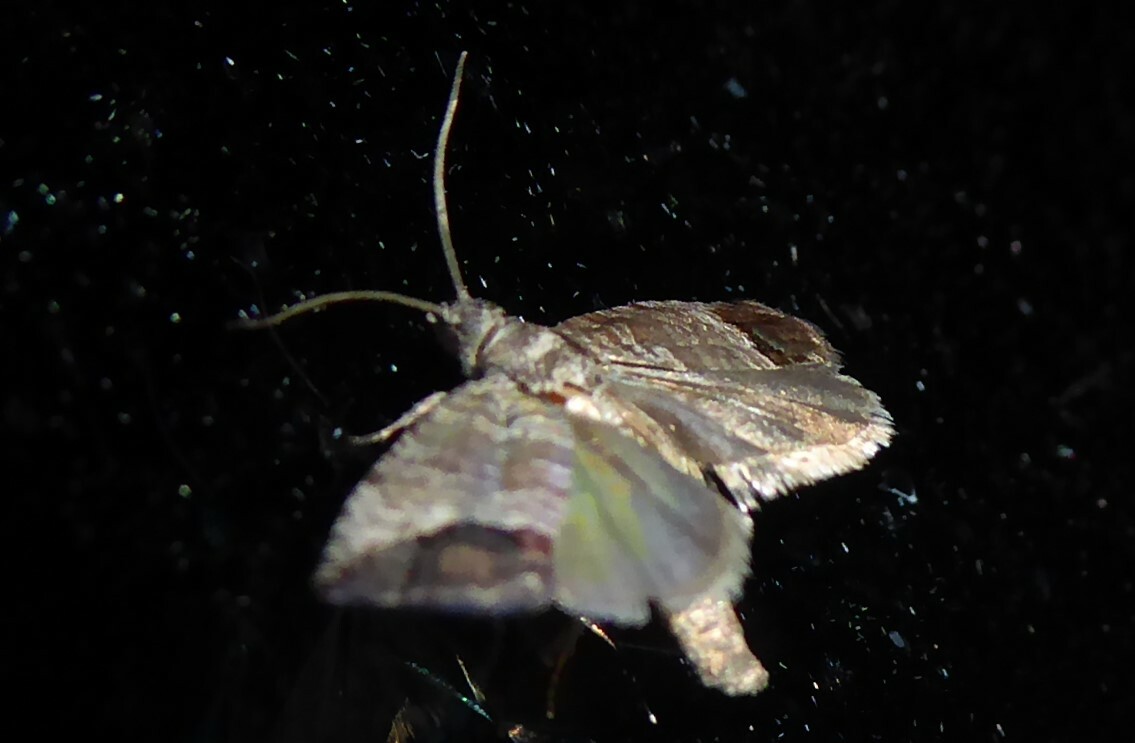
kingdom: Animalia
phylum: Arthropoda
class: Insecta
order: Lepidoptera
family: Tortricidae
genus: Cydia
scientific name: Cydia pomonella
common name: Codling moth
